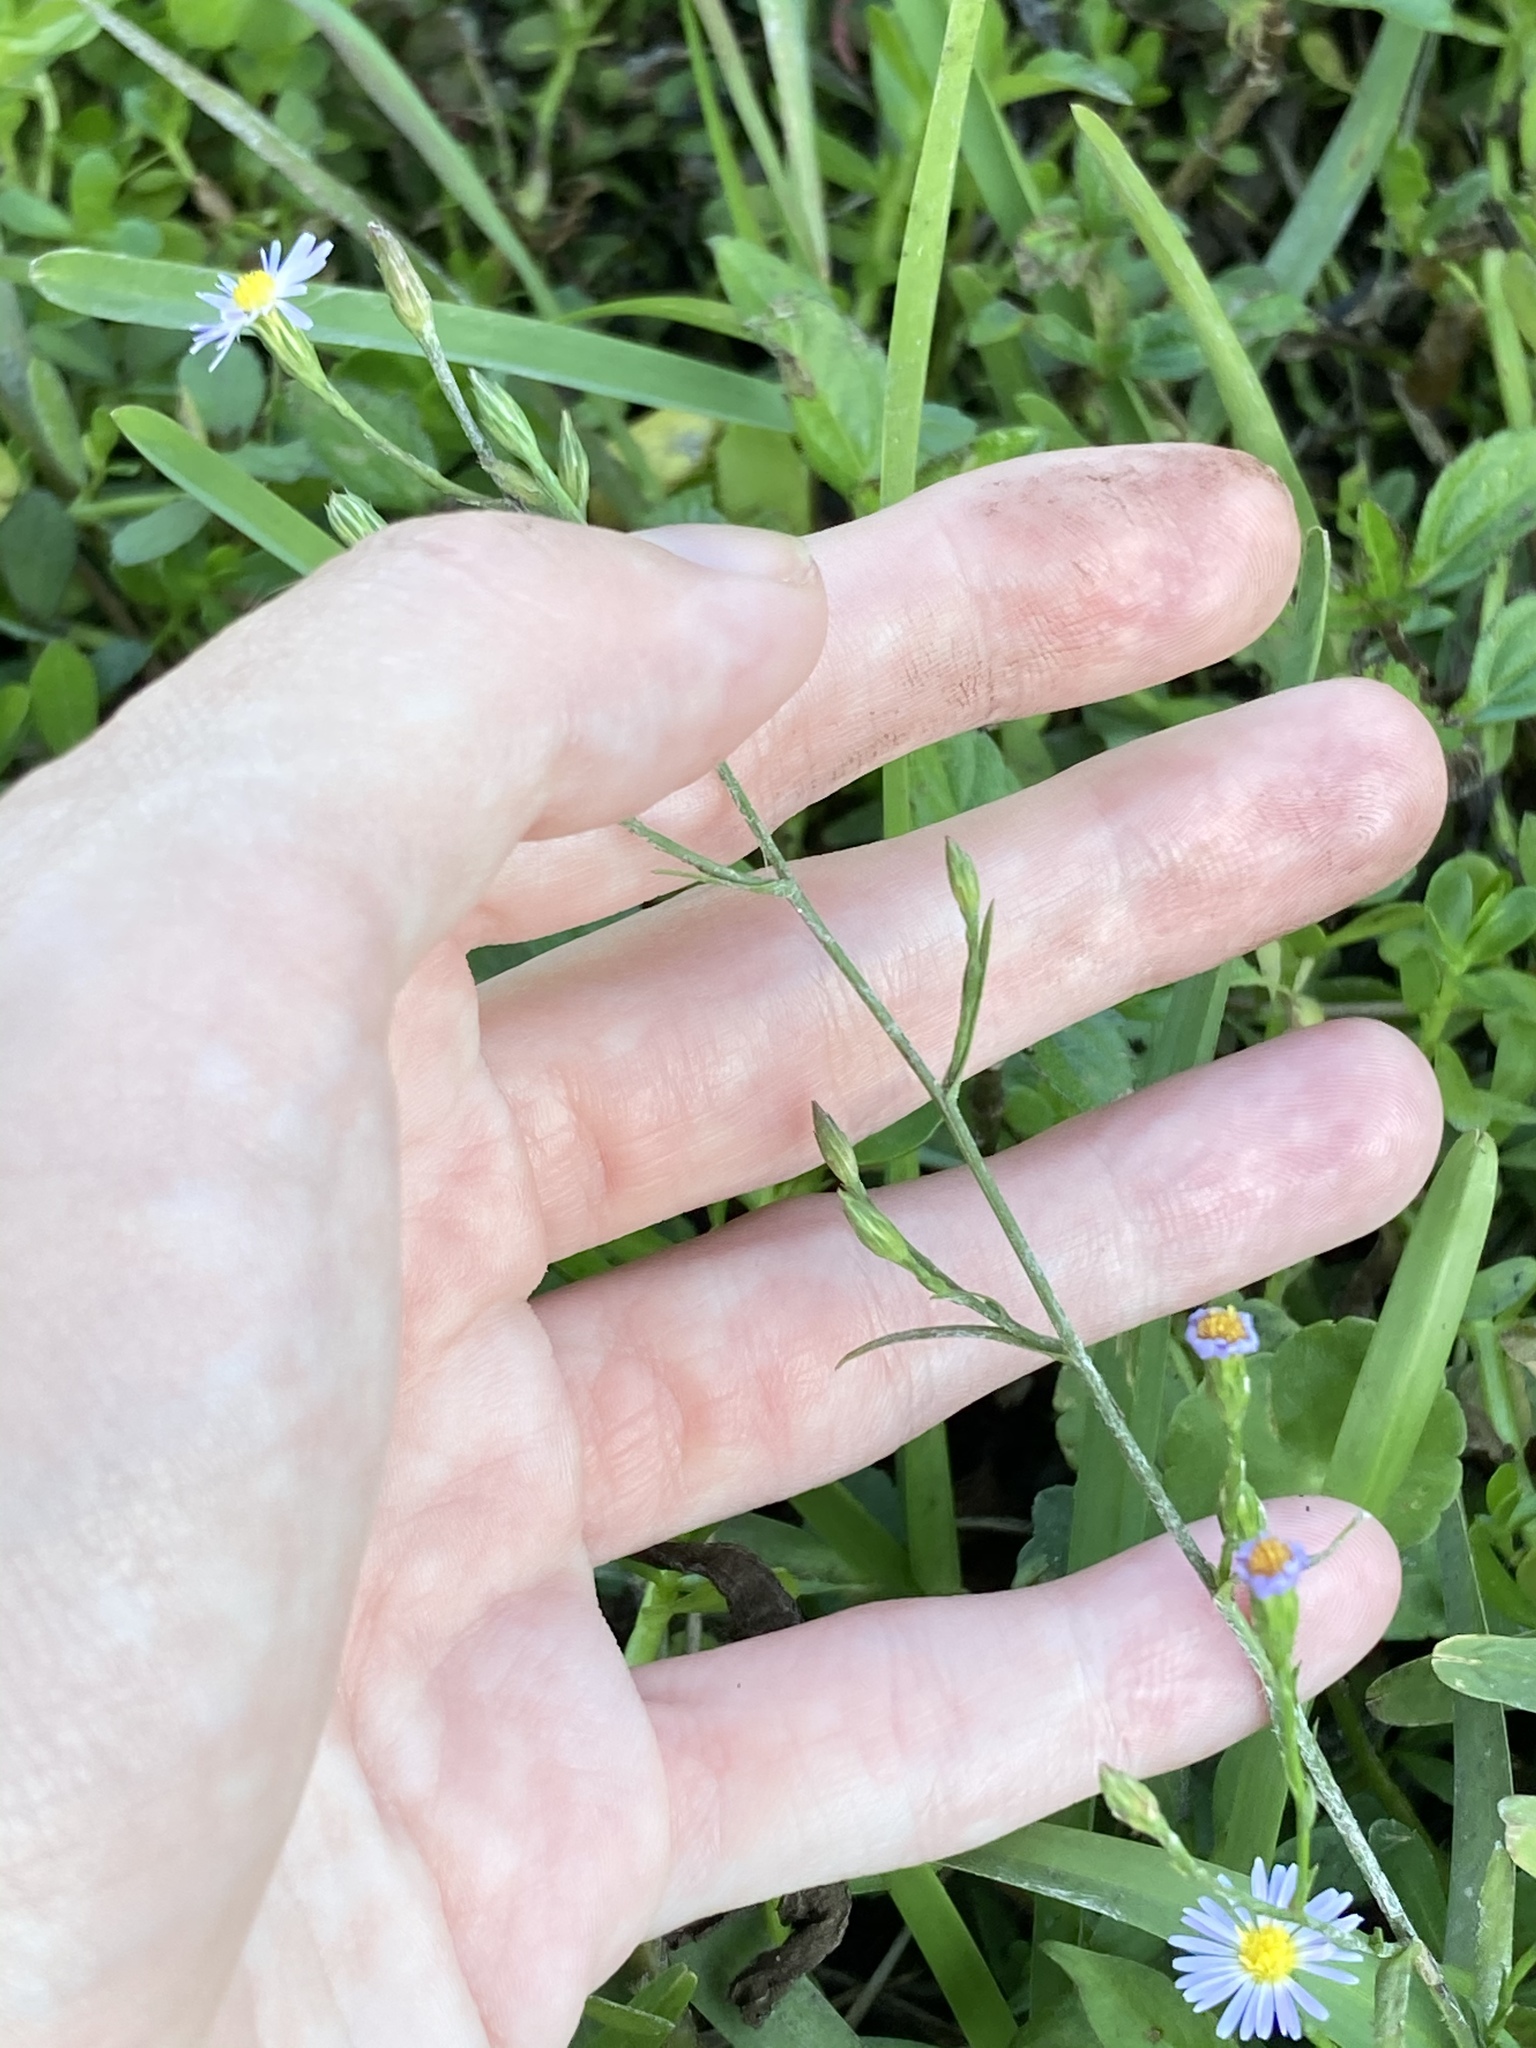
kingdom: Plantae
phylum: Tracheophyta
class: Magnoliopsida
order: Asterales
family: Asteraceae
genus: Symphyotrichum
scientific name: Symphyotrichum subulatum
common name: Annual saltmarsh aster
